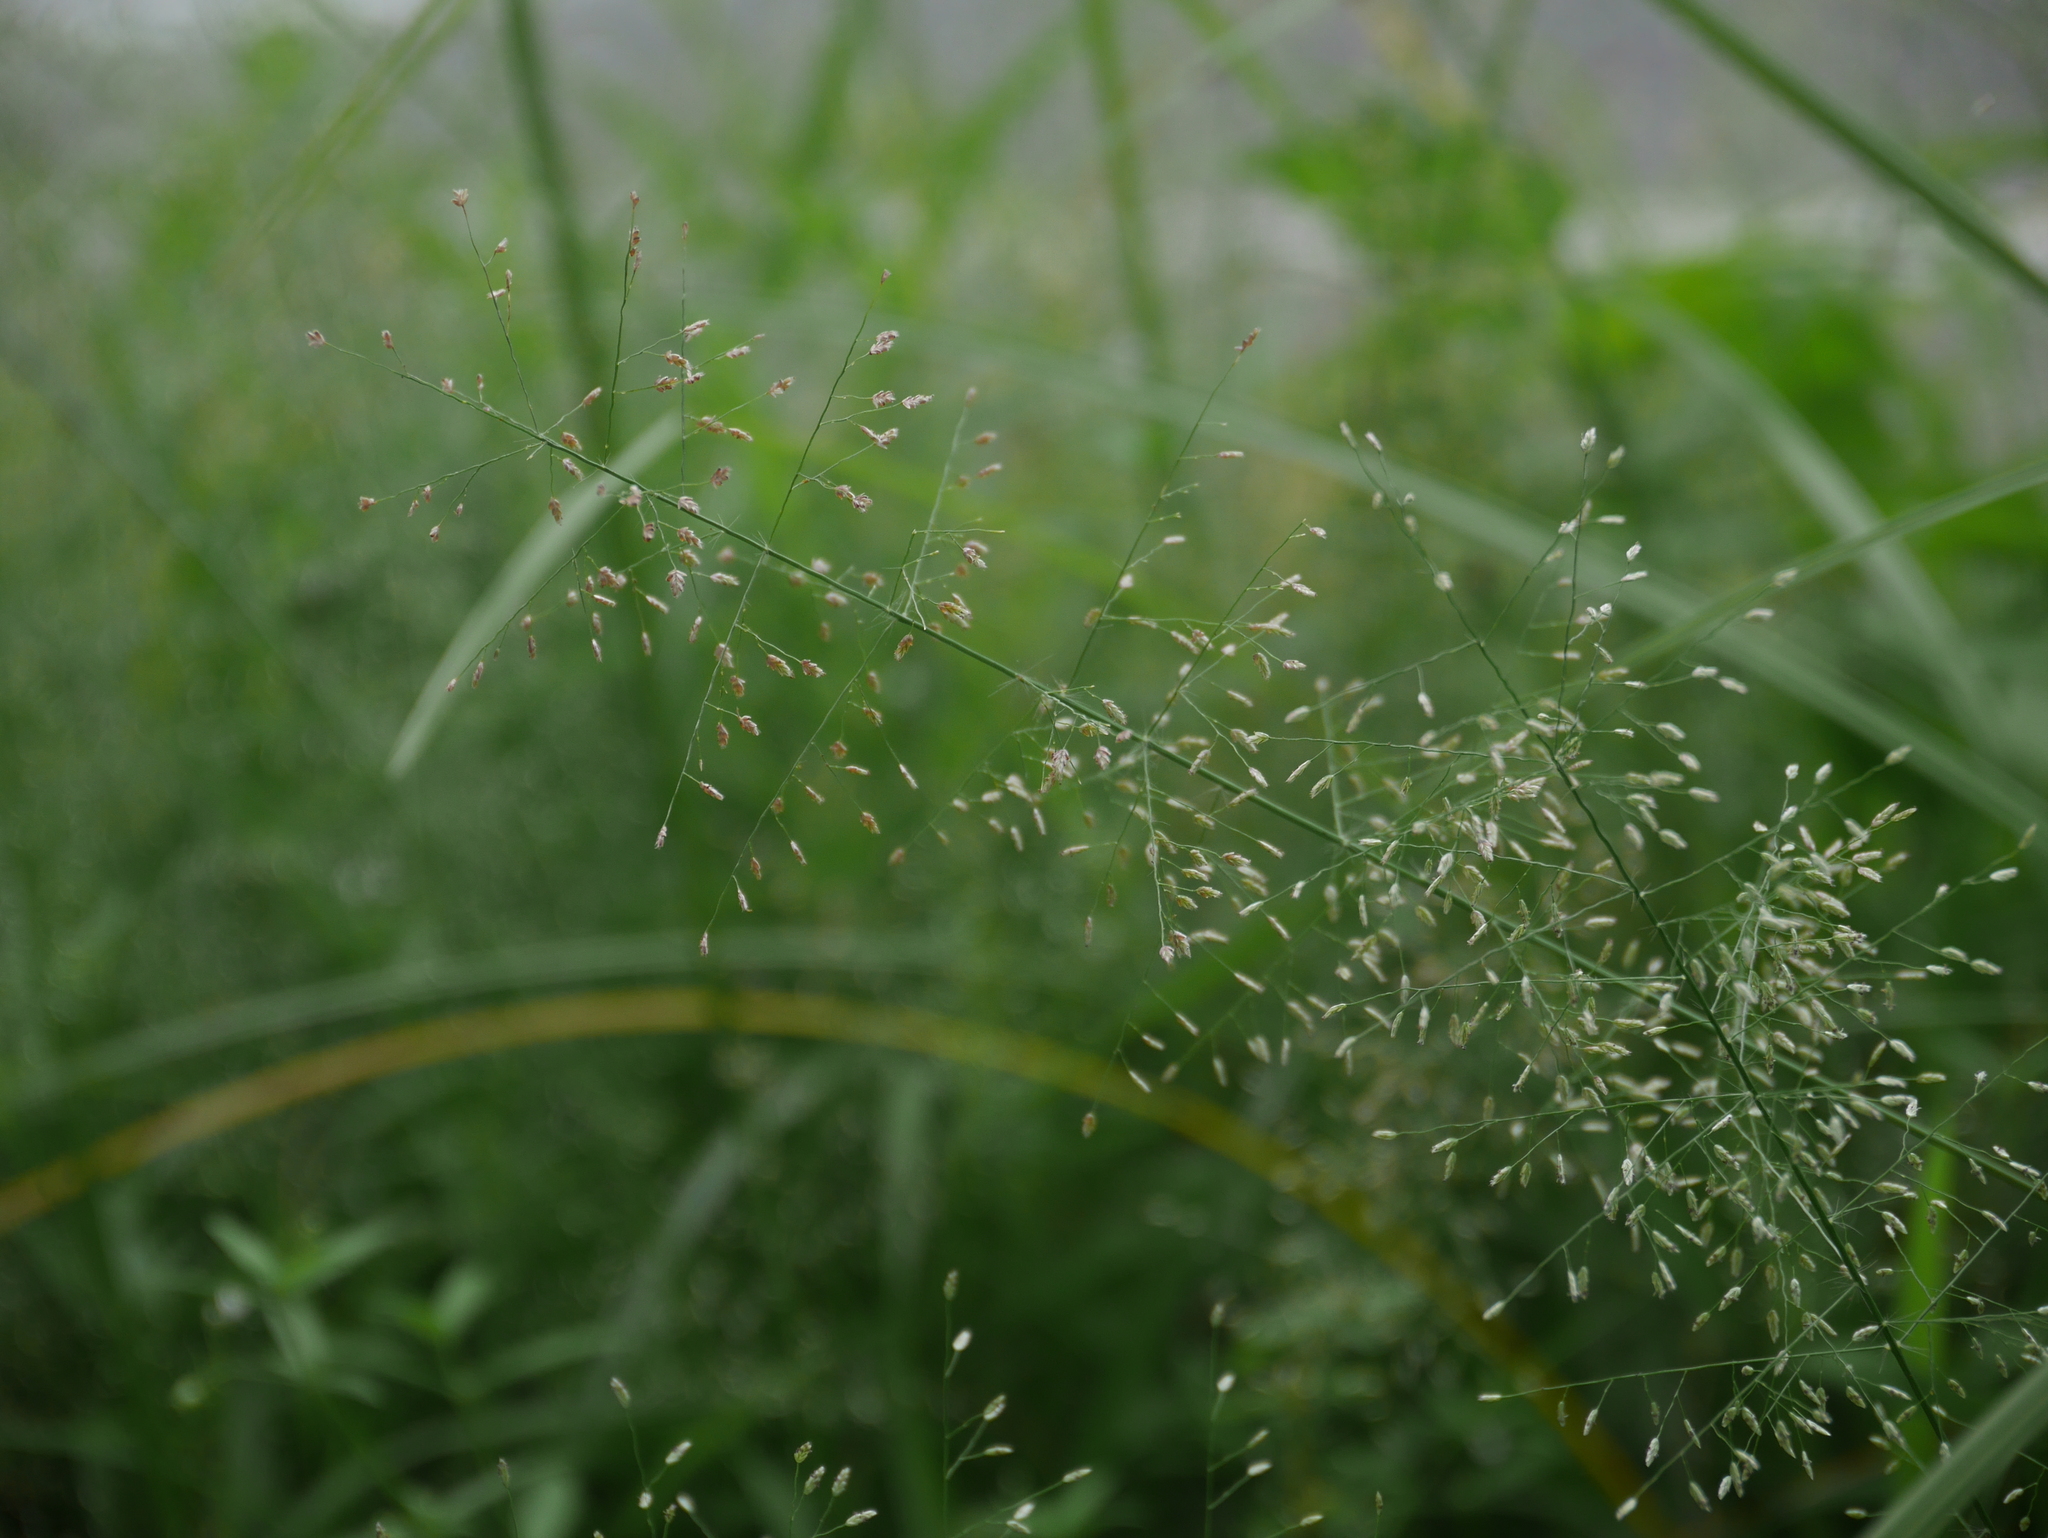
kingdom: Plantae
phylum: Tracheophyta
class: Liliopsida
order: Poales
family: Poaceae
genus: Eragrostis
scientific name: Eragrostis tenella
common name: Japanese lovegrass
